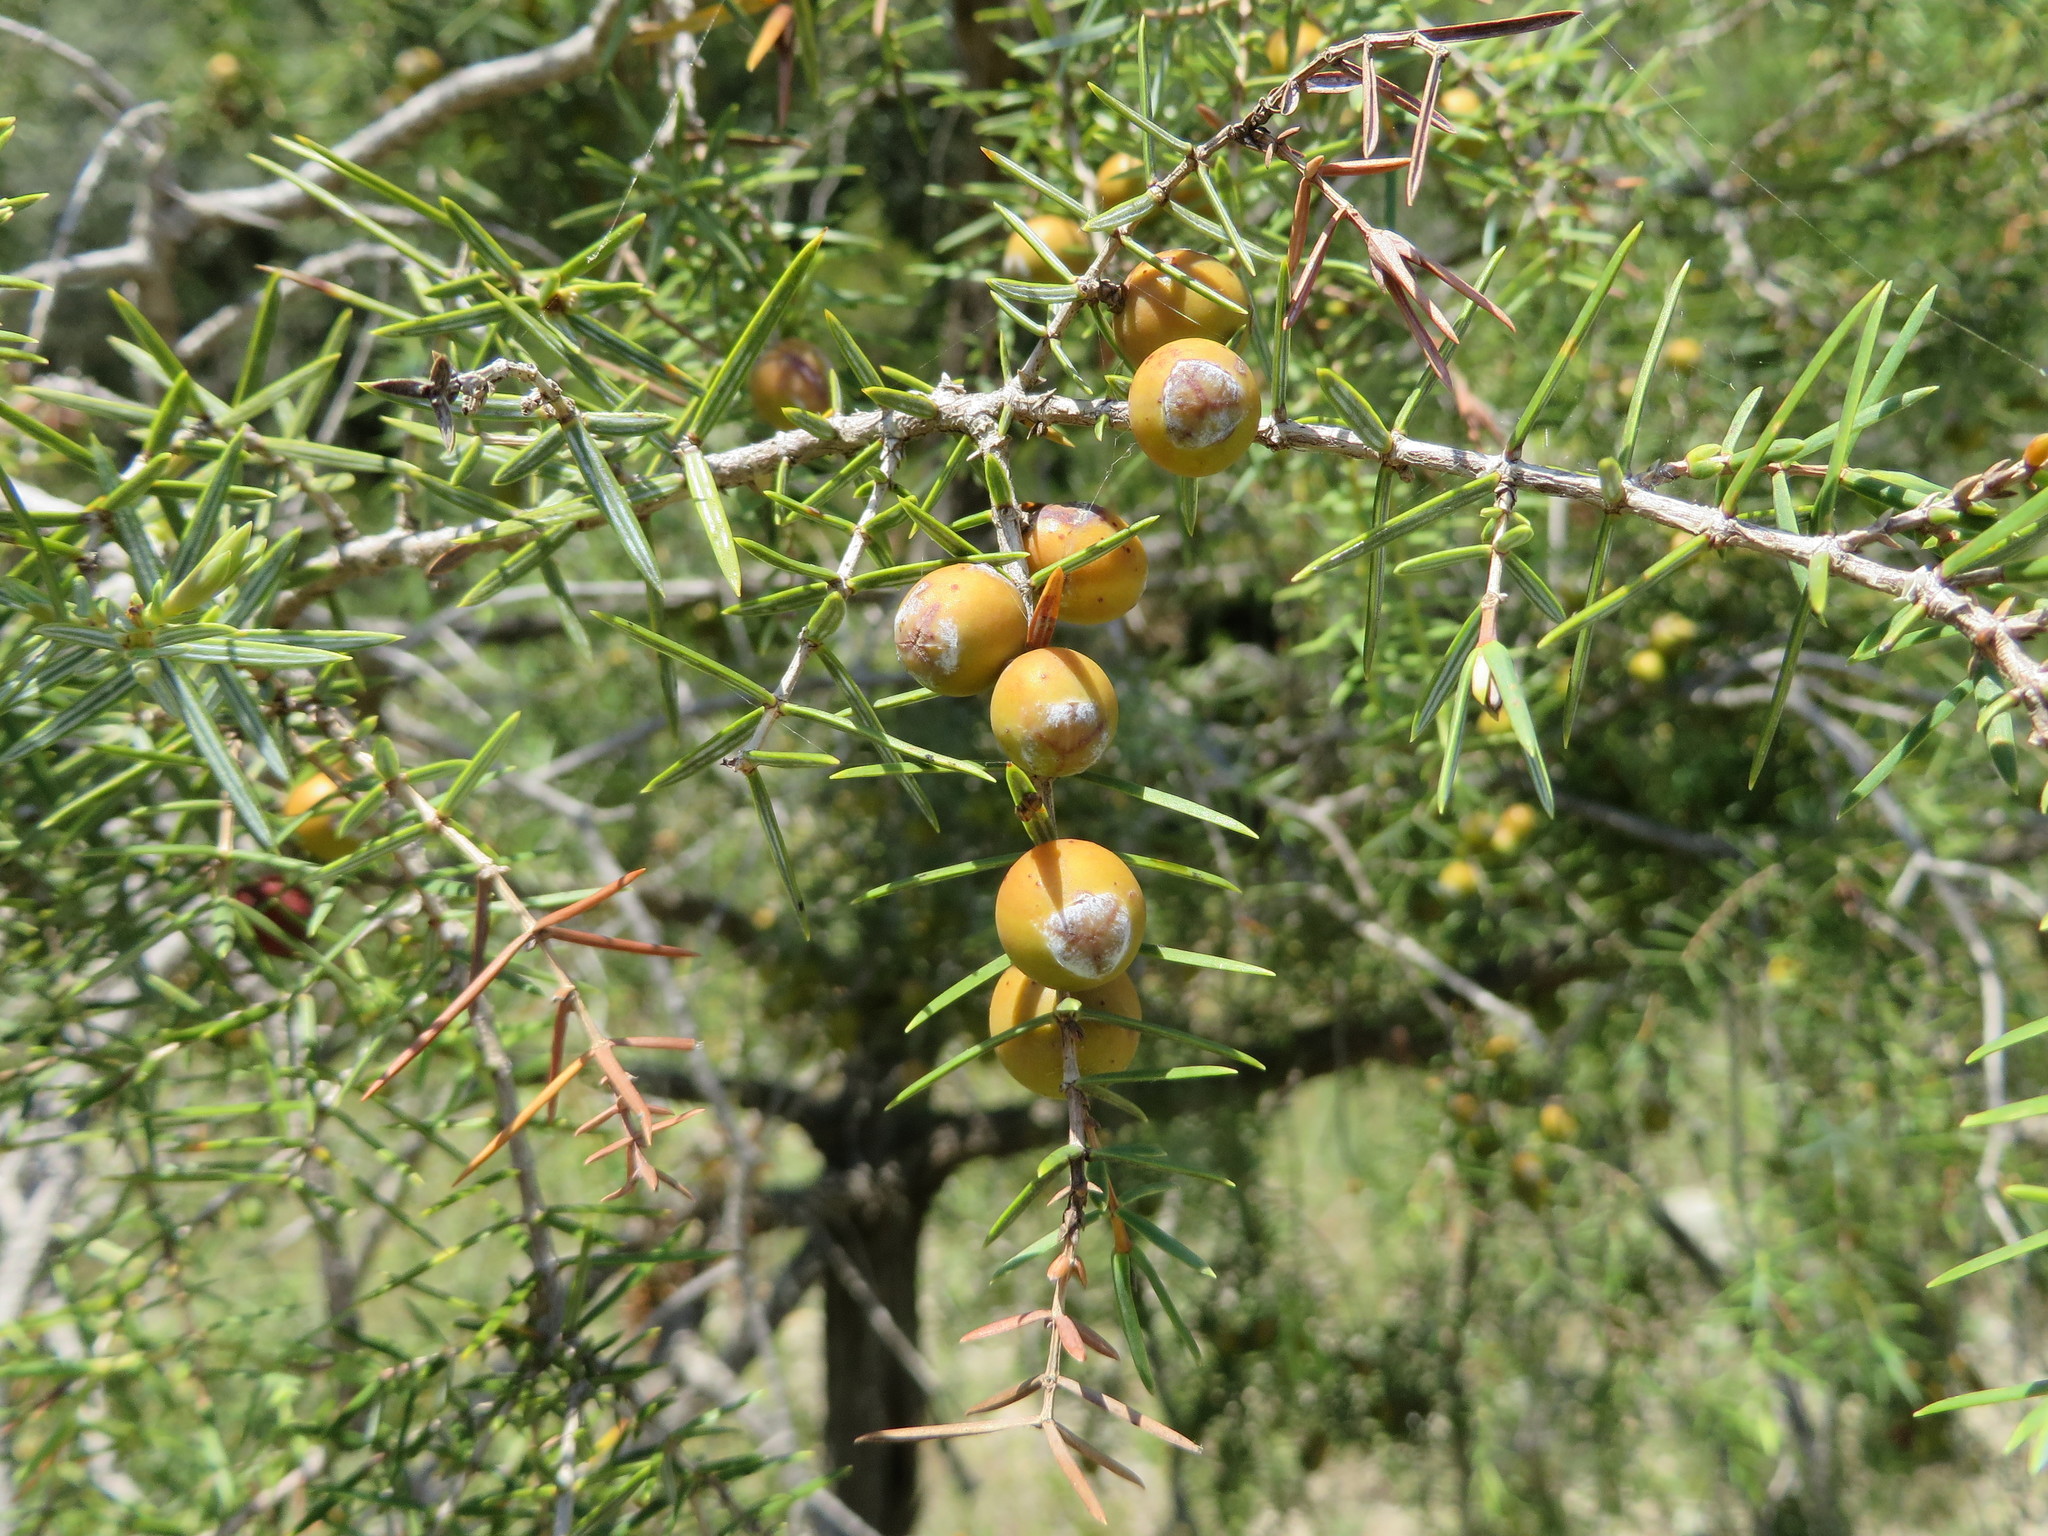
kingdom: Plantae
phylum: Tracheophyta
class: Pinopsida
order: Pinales
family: Cupressaceae
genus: Juniperus
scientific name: Juniperus oxycedrus
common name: Prickly juniper
